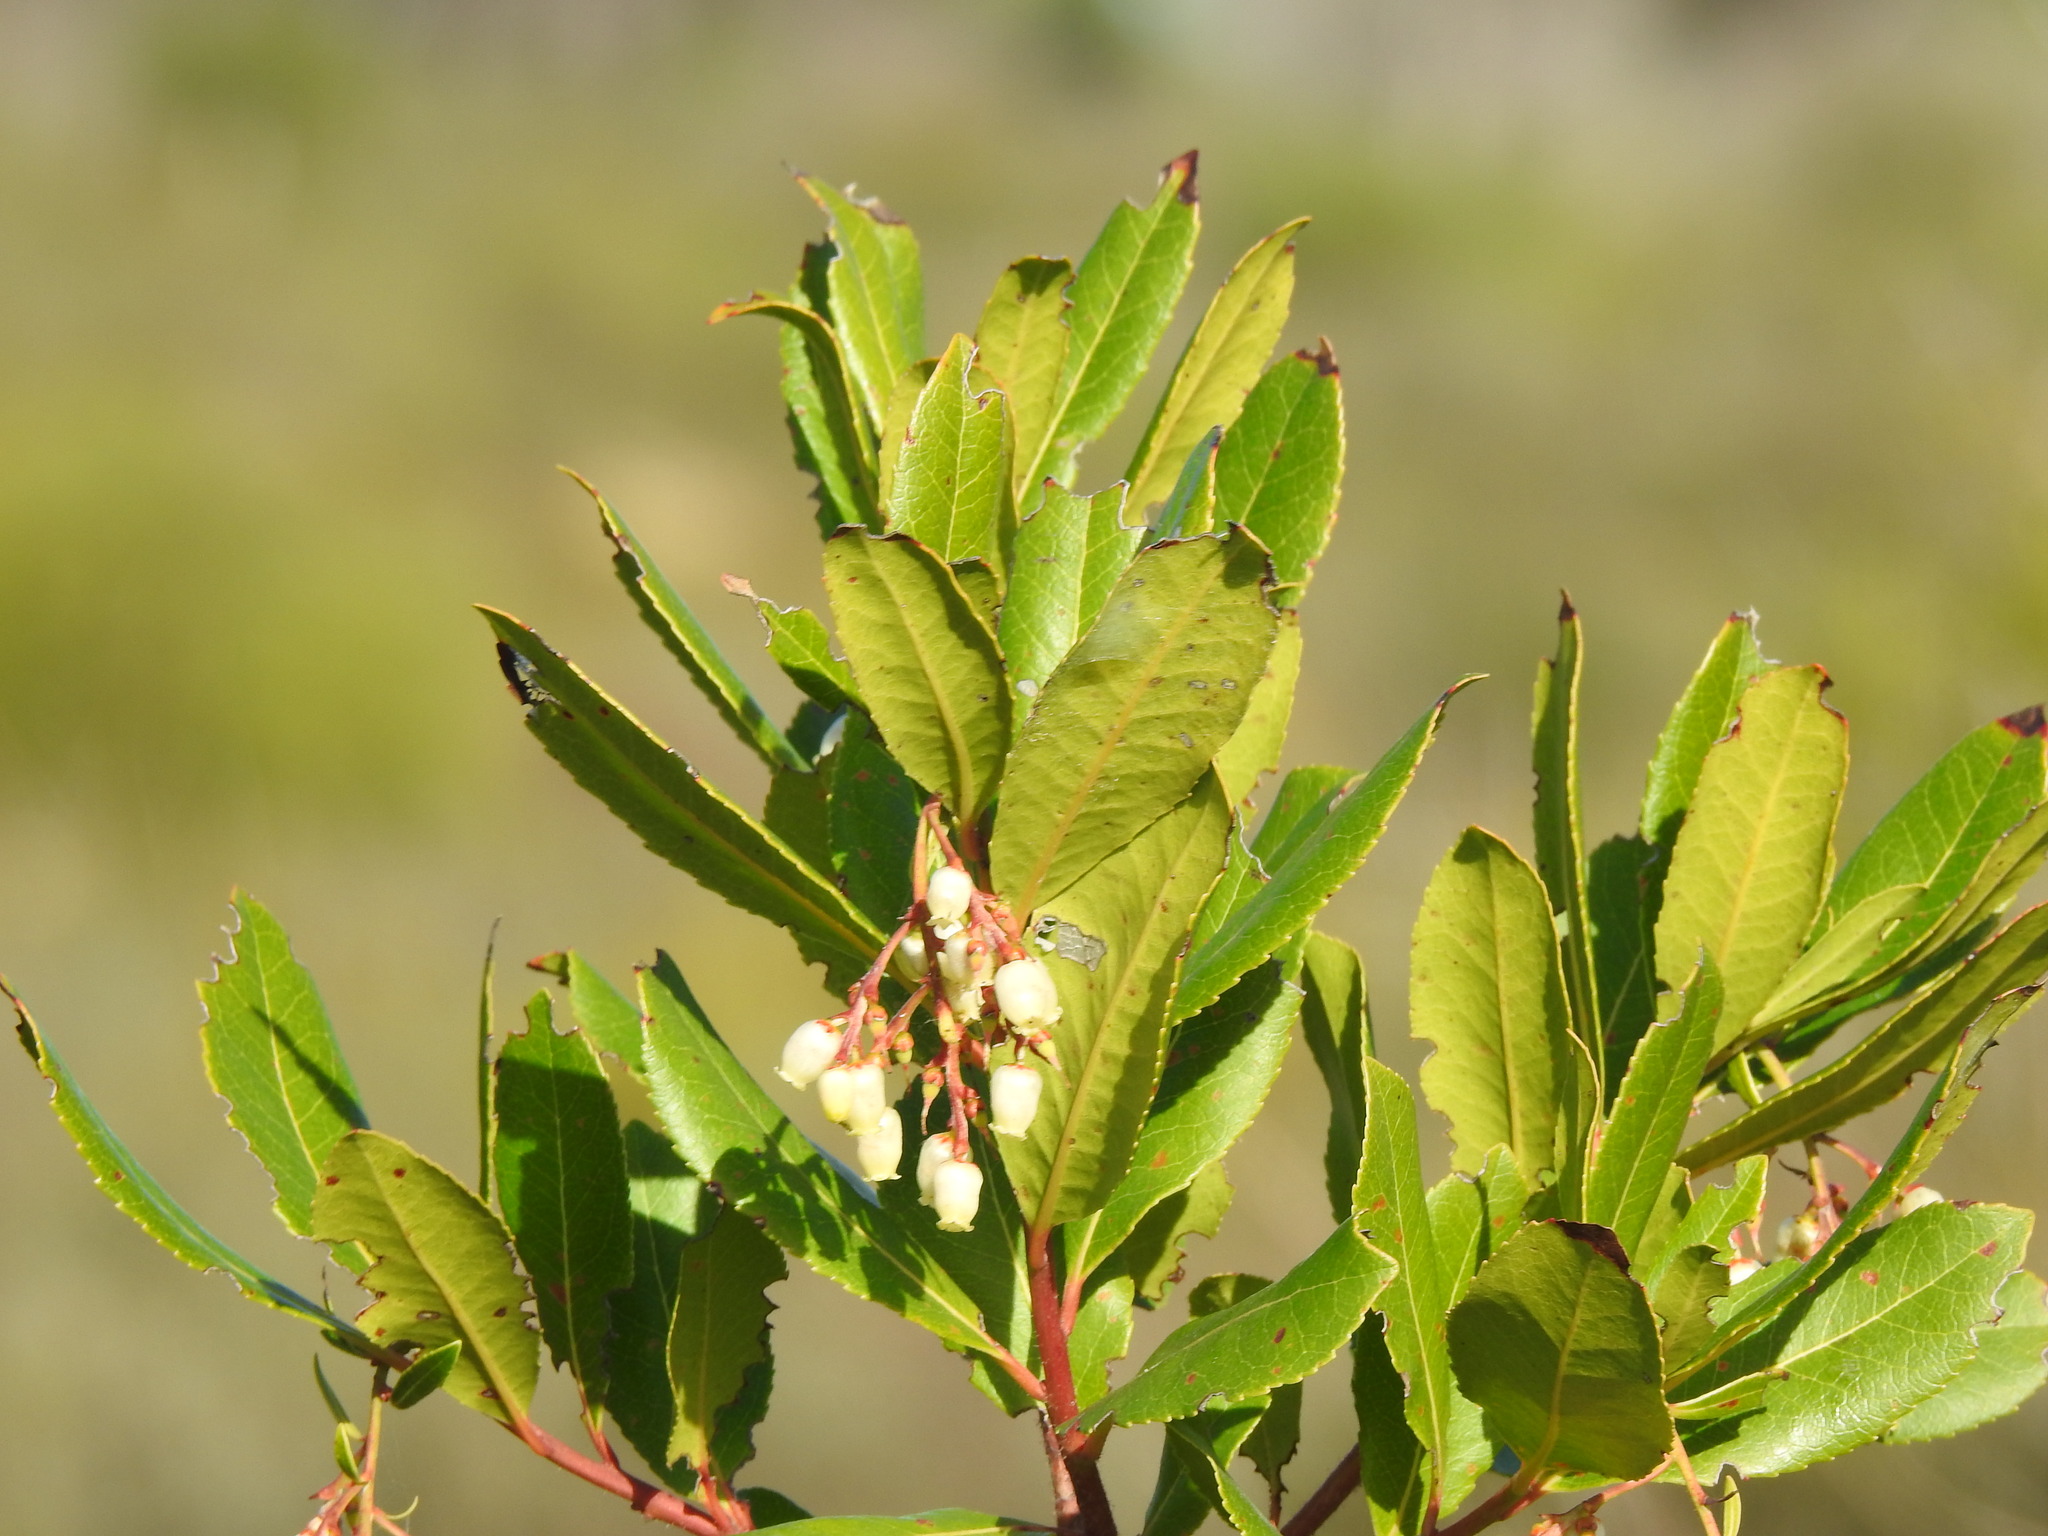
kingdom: Plantae
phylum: Tracheophyta
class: Magnoliopsida
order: Ericales
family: Ericaceae
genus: Arbutus
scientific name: Arbutus unedo
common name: Strawberry-tree
